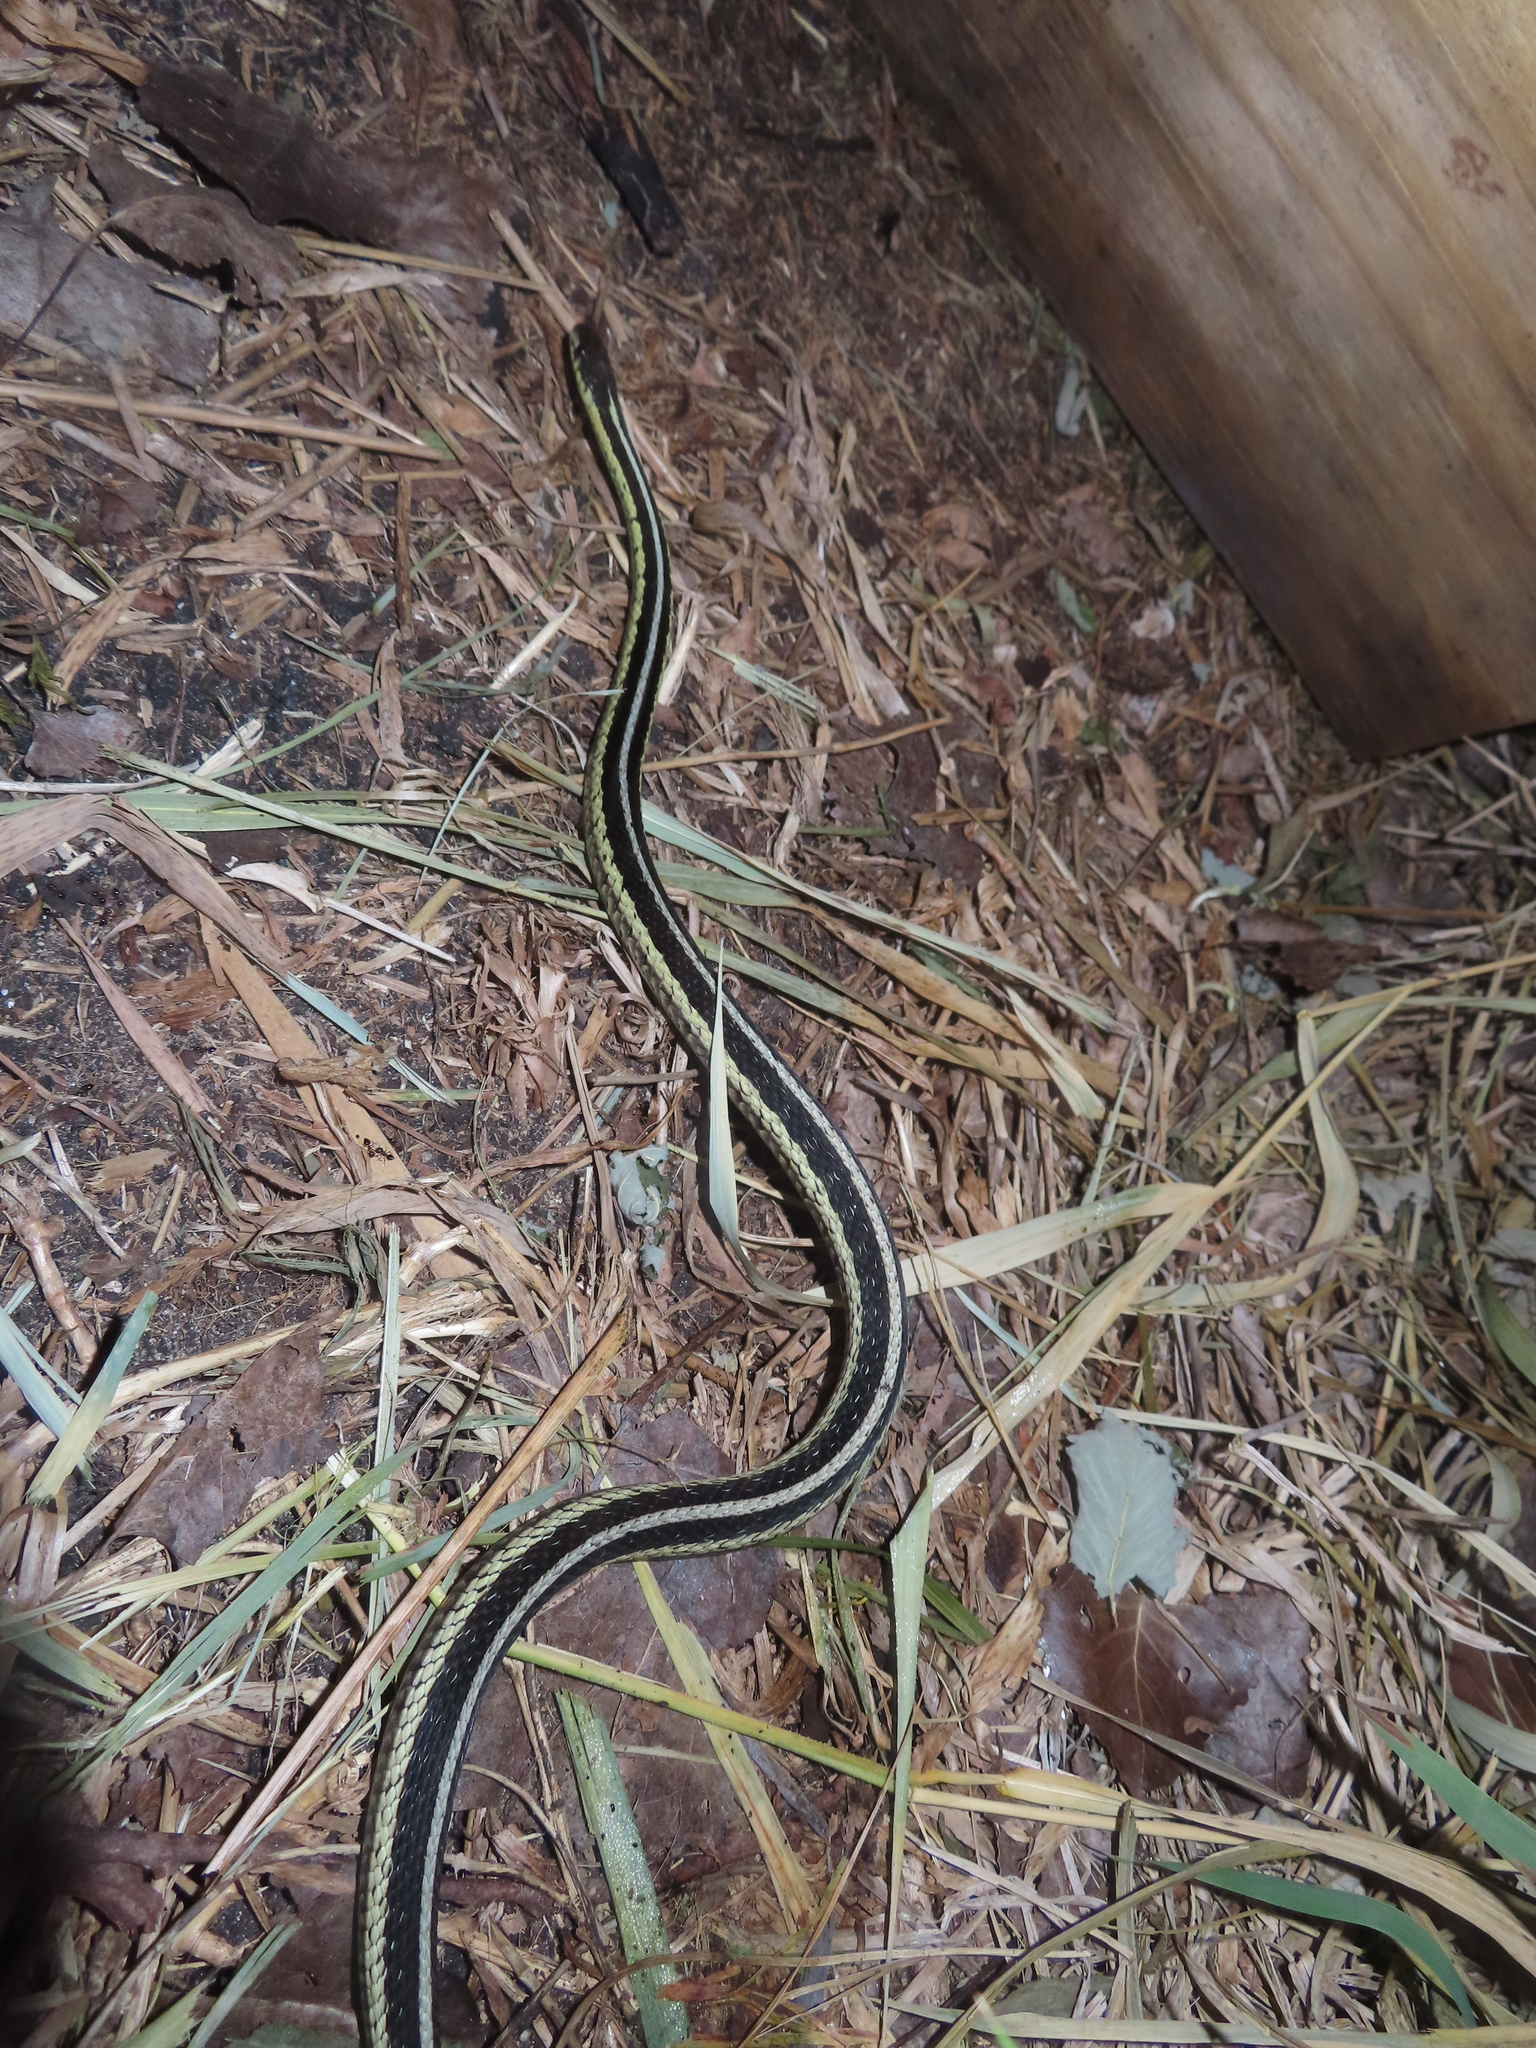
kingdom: Animalia
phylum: Chordata
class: Squamata
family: Colubridae
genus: Thamnophis
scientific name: Thamnophis sirtalis
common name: Common garter snake
